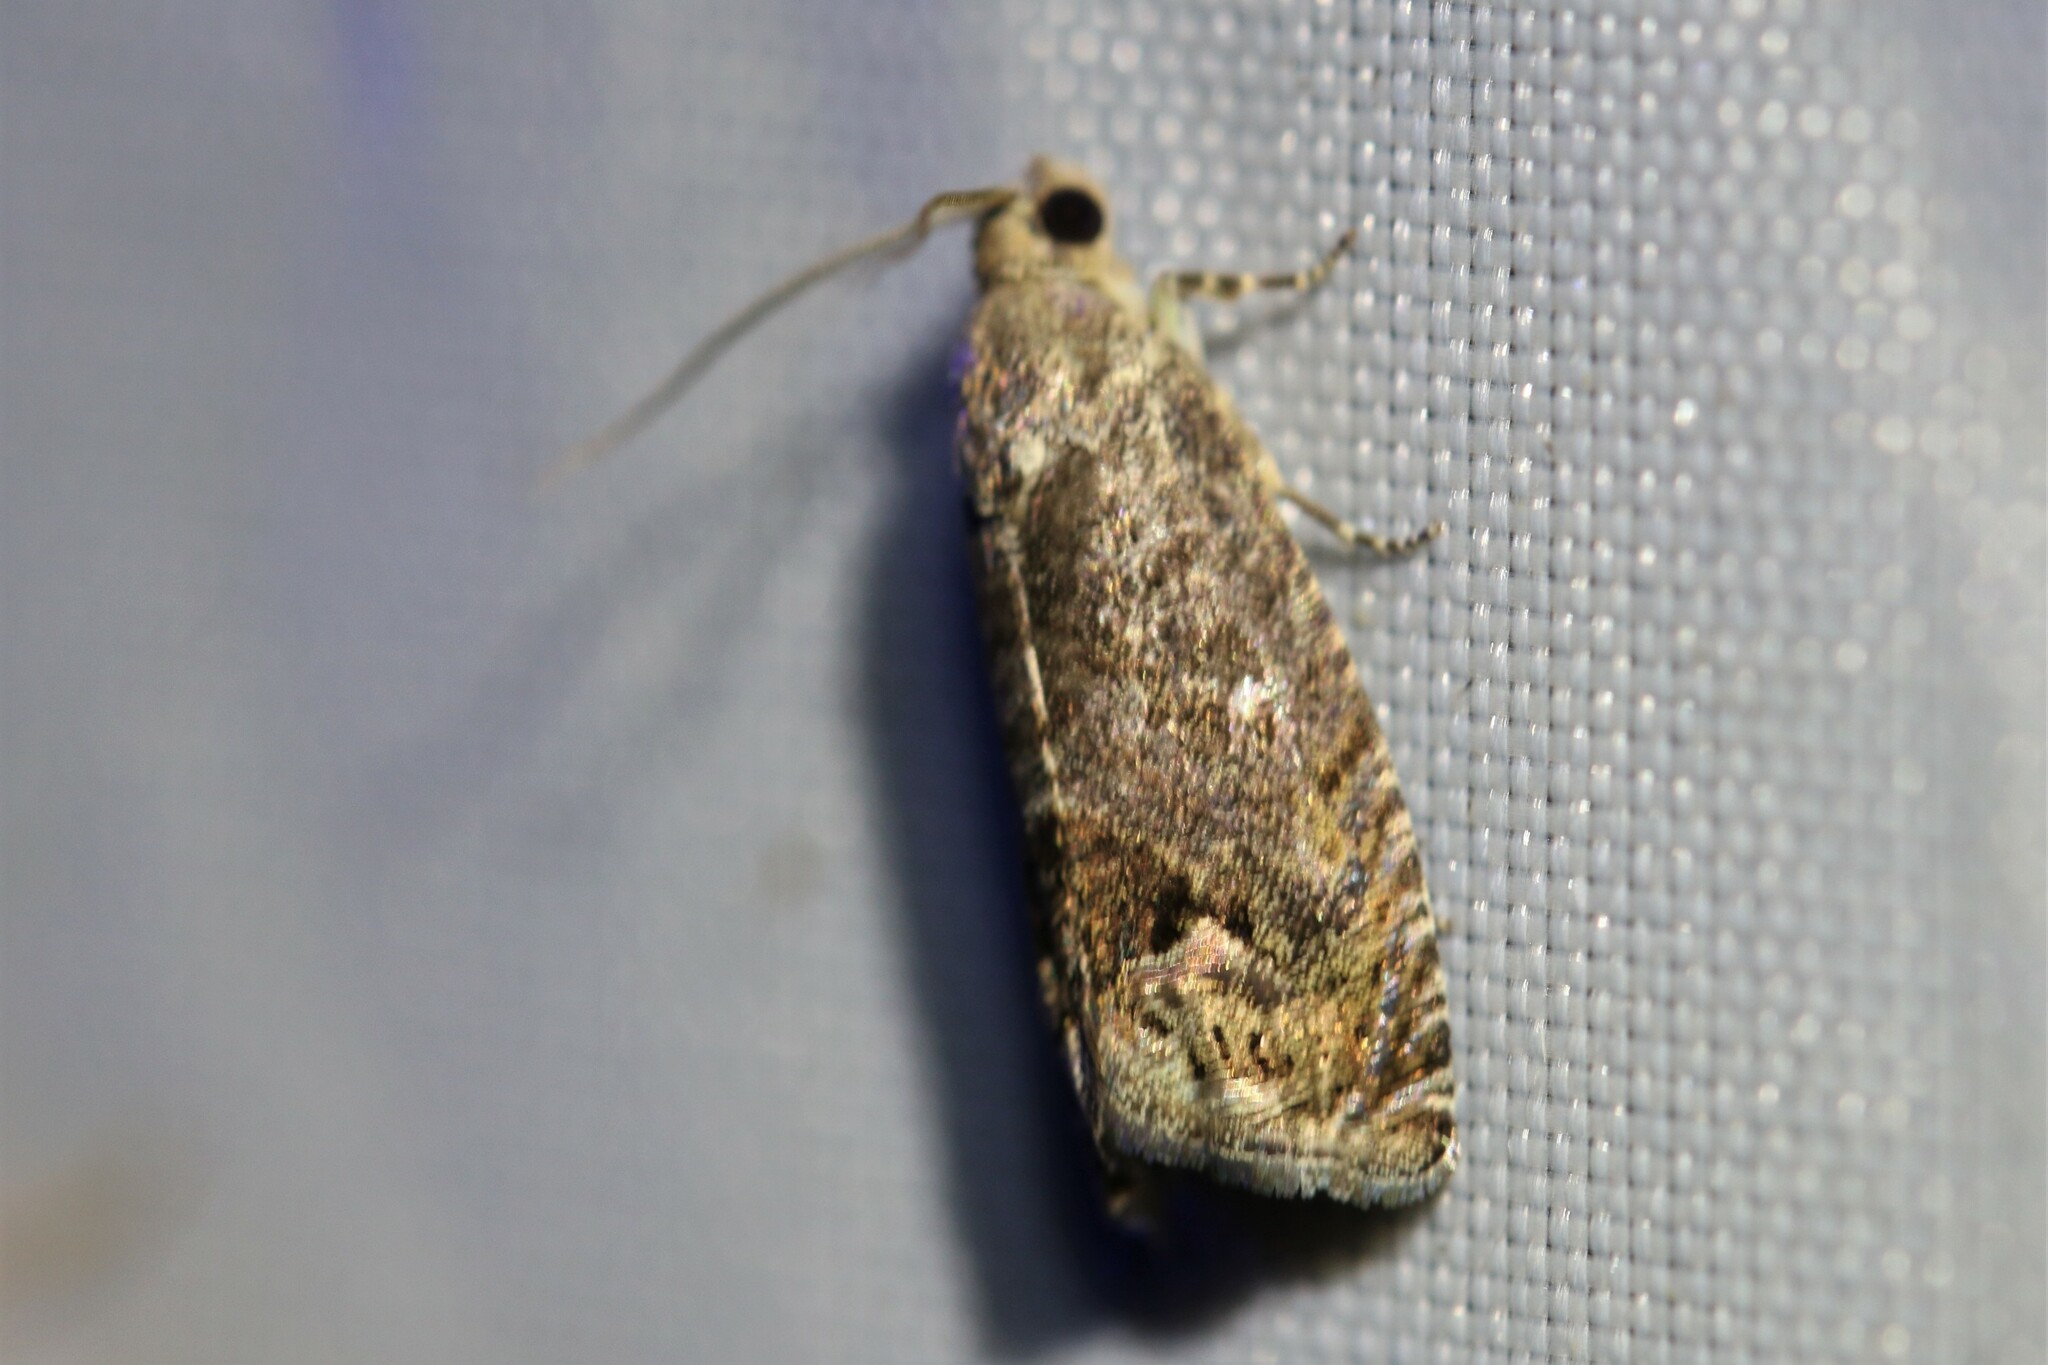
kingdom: Animalia
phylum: Arthropoda
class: Insecta
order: Lepidoptera
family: Tortricidae
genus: Cydia
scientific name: Cydia splendana
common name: De: kastanienwickler, eichenwickler es: oruga de la castaña fr: carpocapse des châtaignes it: cidia o tortrice tardiva delle castagne pt: bichado das castanhas gb: acorn moth, chestnut fruit tortrix
